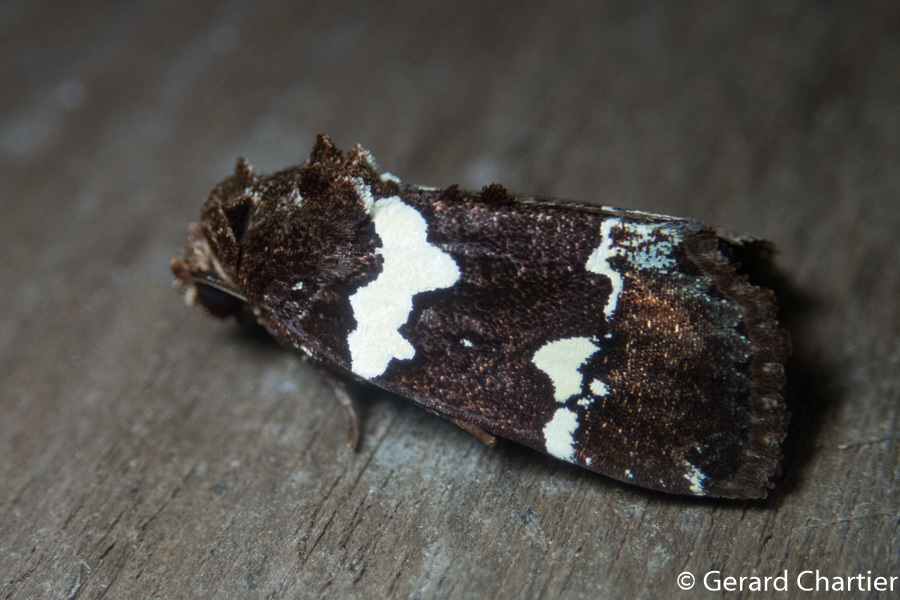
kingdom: Animalia
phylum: Arthropoda
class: Insecta
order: Lepidoptera
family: Noctuidae
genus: Borbotana
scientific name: Borbotana nivifascia
